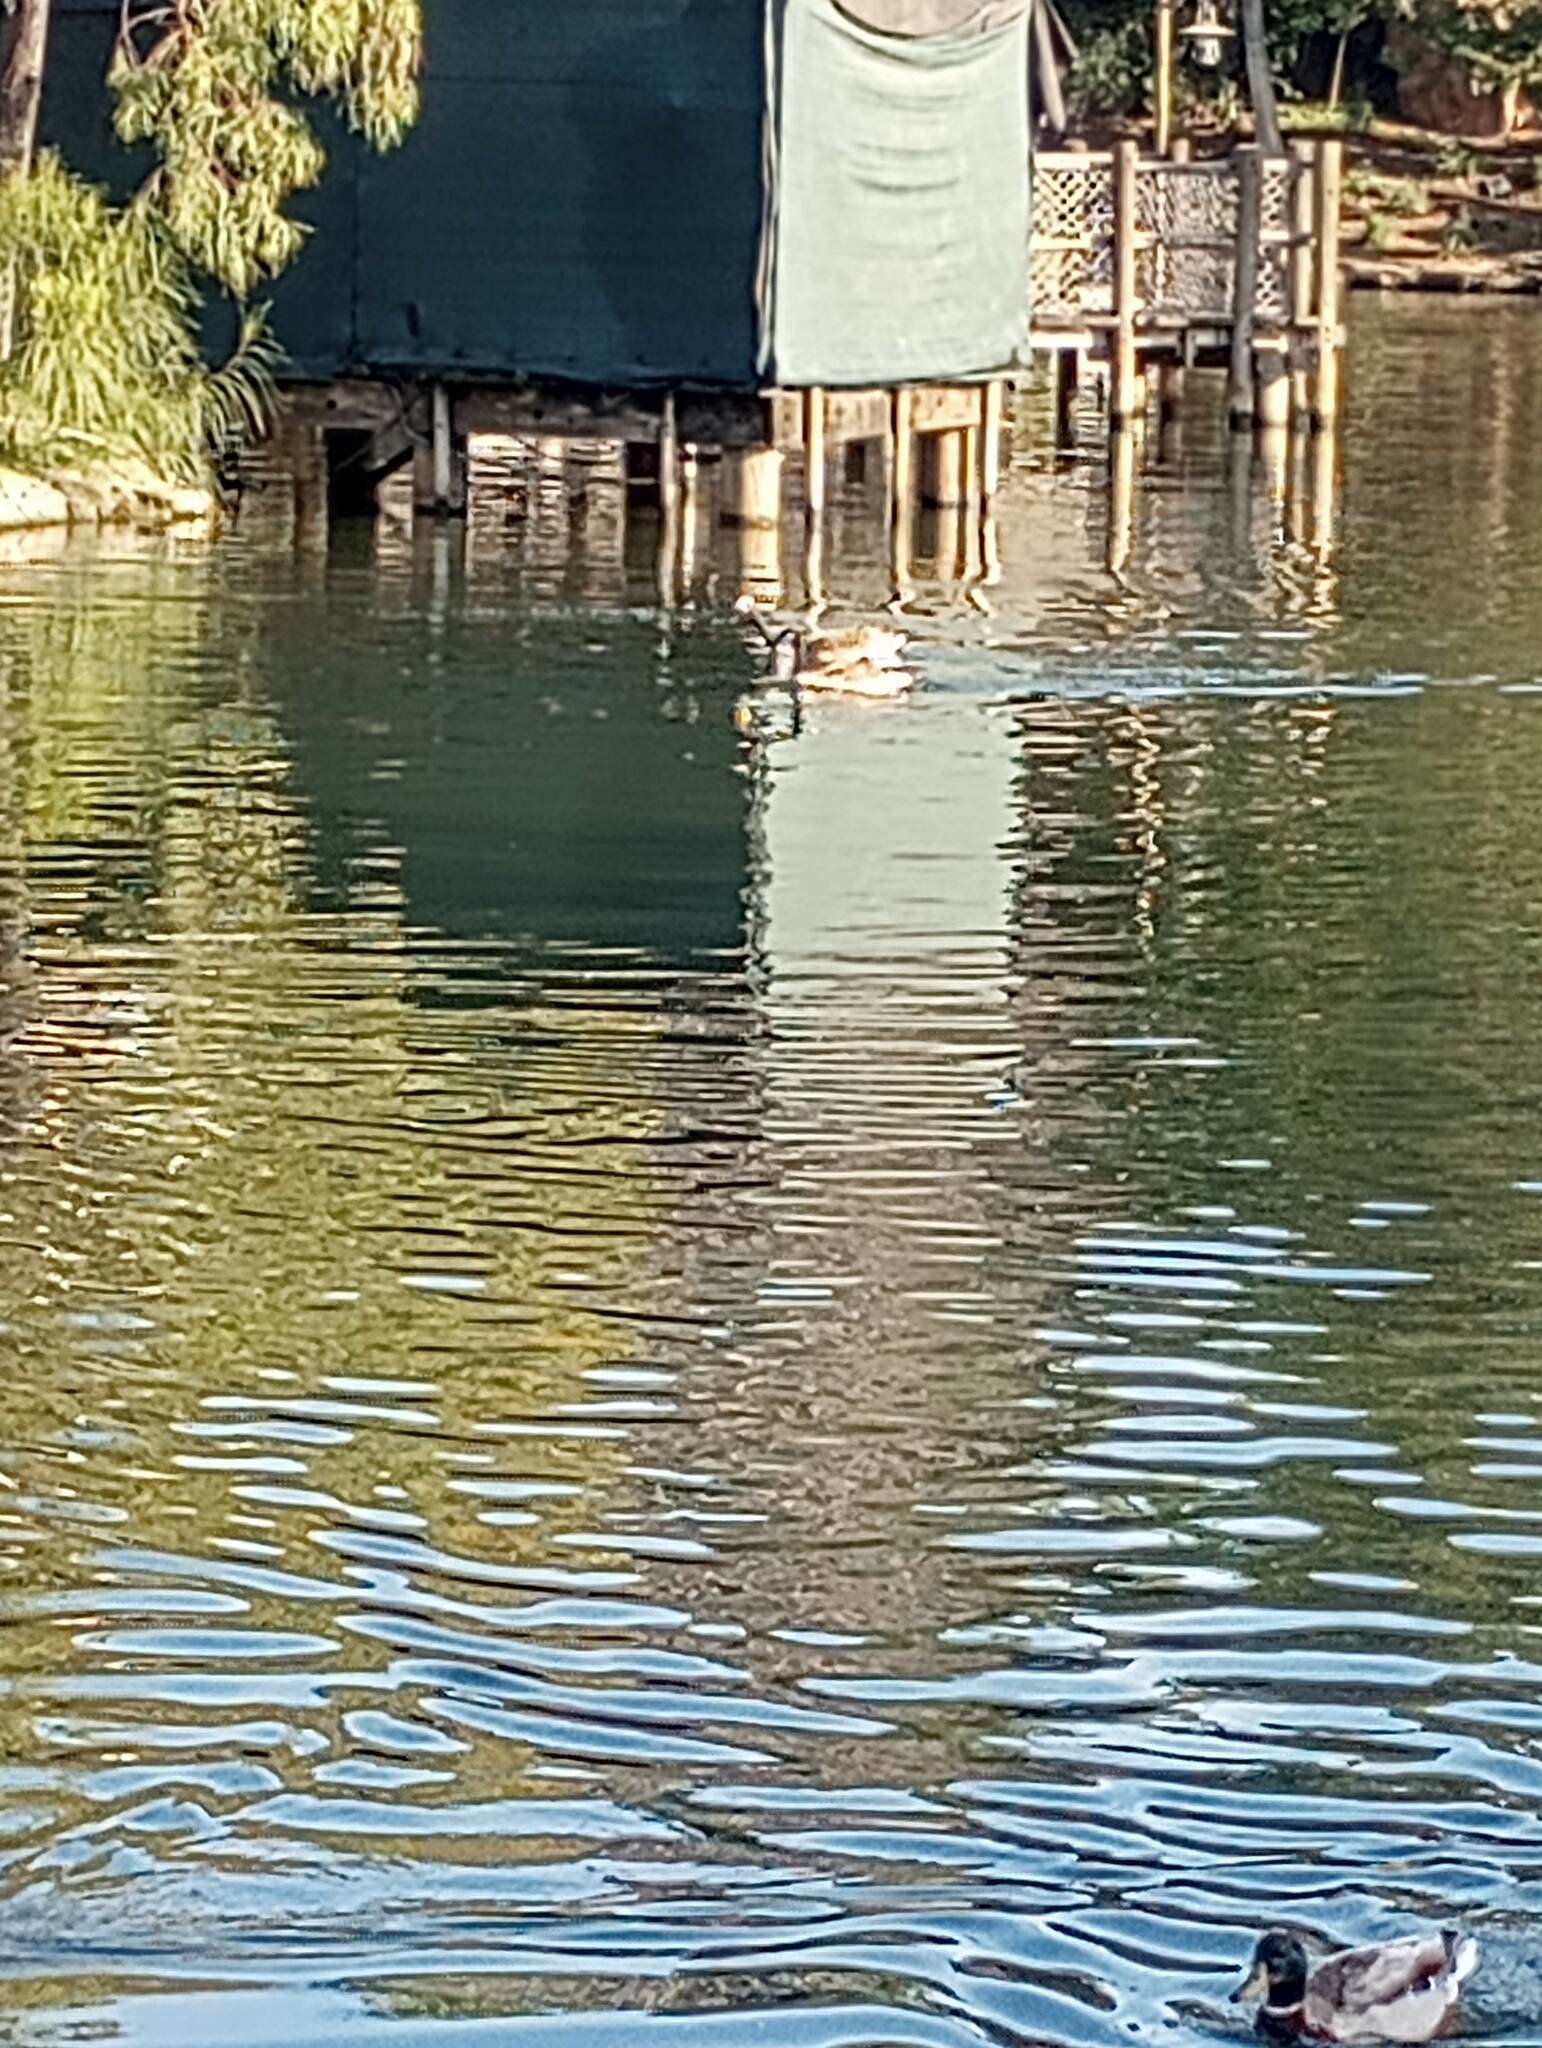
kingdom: Animalia
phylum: Chordata
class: Aves
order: Anseriformes
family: Anatidae
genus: Branta
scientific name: Branta canadensis
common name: Canada goose
